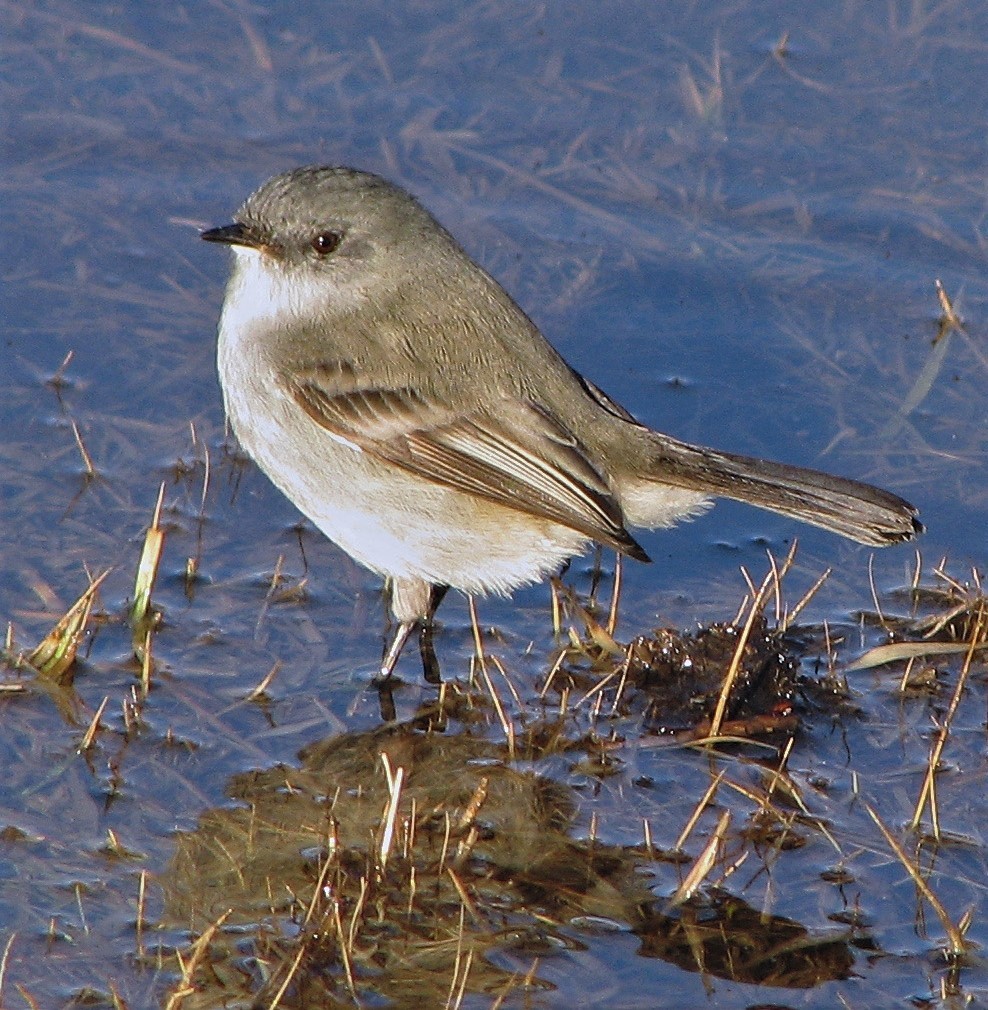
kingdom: Animalia
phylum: Chordata
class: Aves
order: Passeriformes
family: Tyrannidae
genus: Serpophaga
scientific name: Serpophaga nigricans
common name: Sooty tyrannulet
